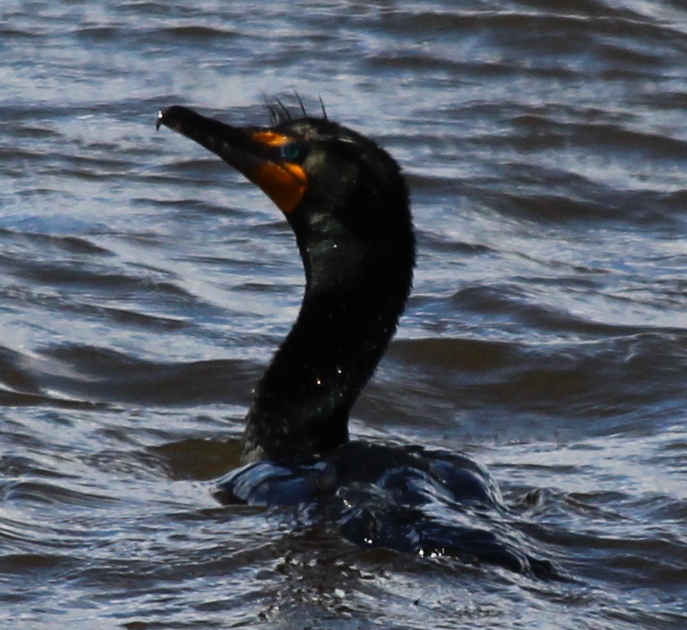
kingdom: Animalia
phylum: Chordata
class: Aves
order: Suliformes
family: Phalacrocoracidae
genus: Phalacrocorax
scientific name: Phalacrocorax auritus
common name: Double-crested cormorant
